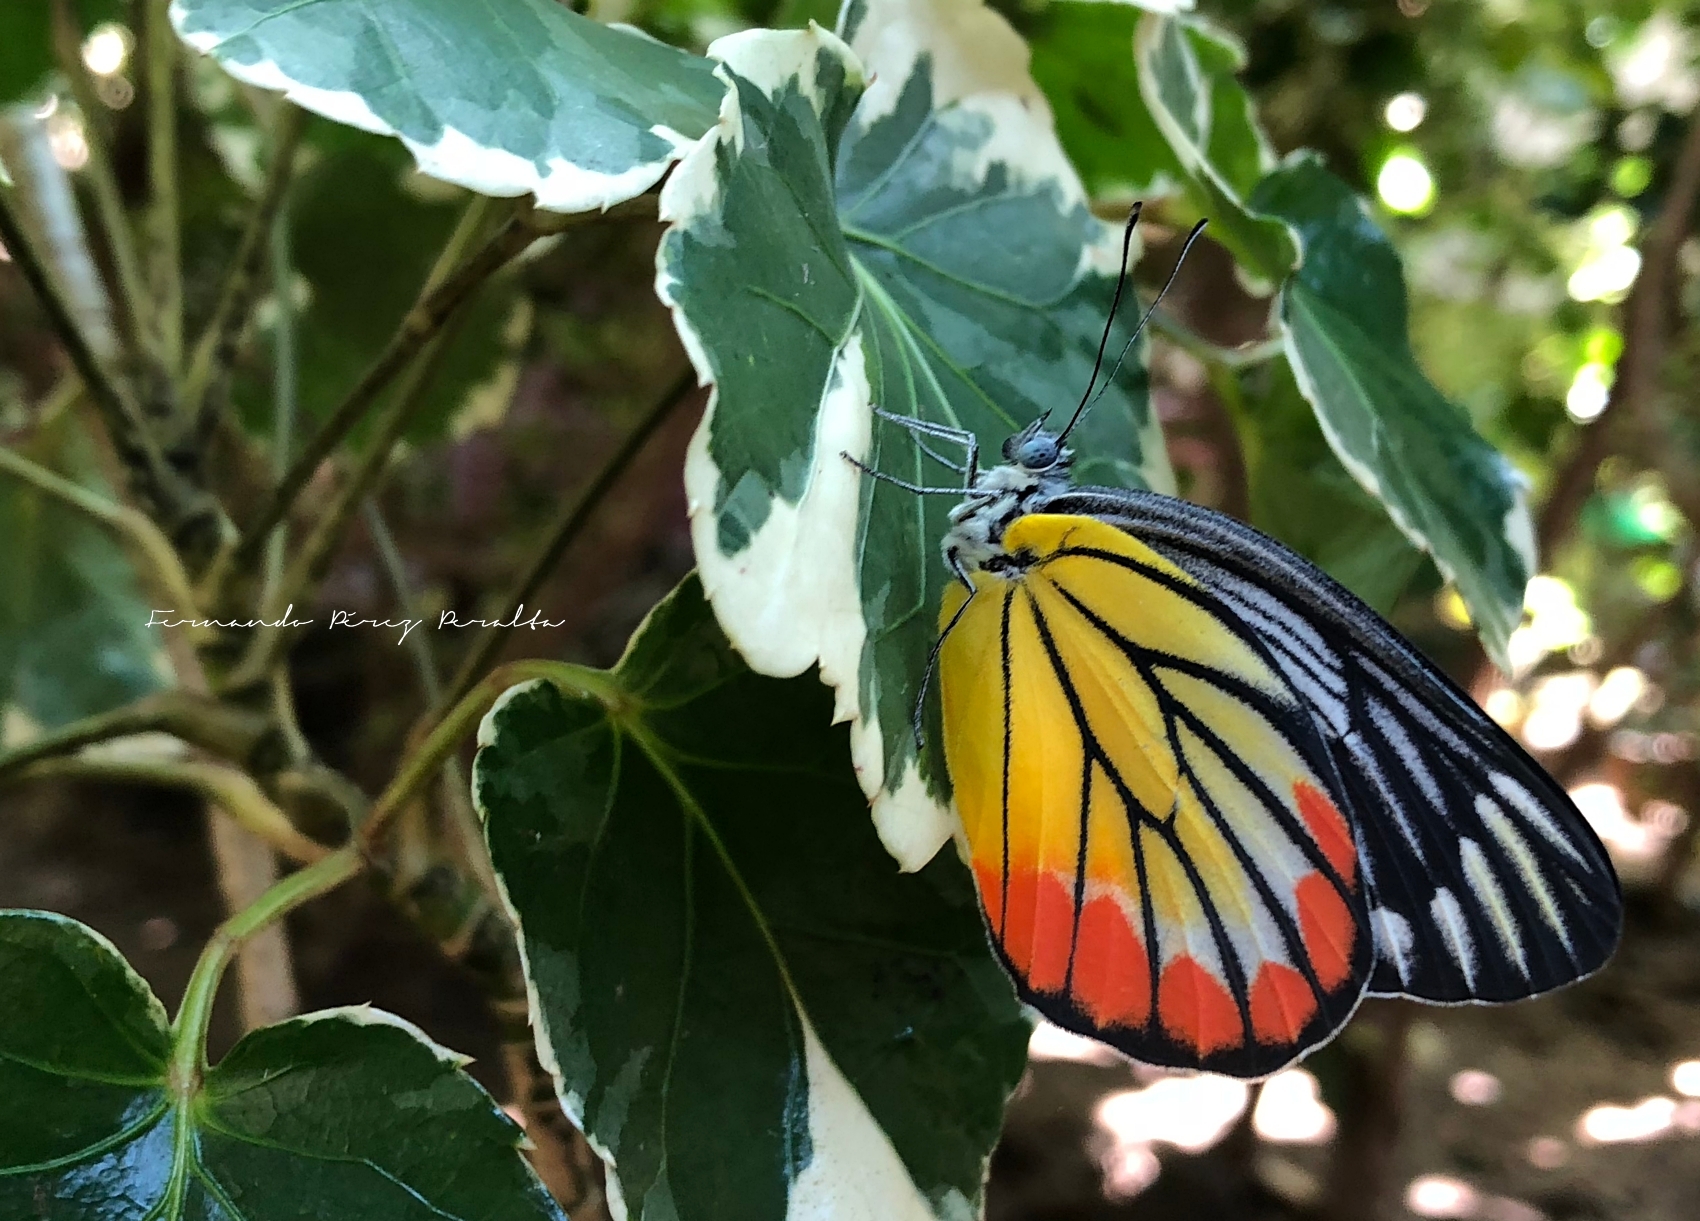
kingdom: Animalia
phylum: Arthropoda
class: Insecta
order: Lepidoptera
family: Pieridae
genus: Delias
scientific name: Delias hyparete
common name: Painted jezebel
